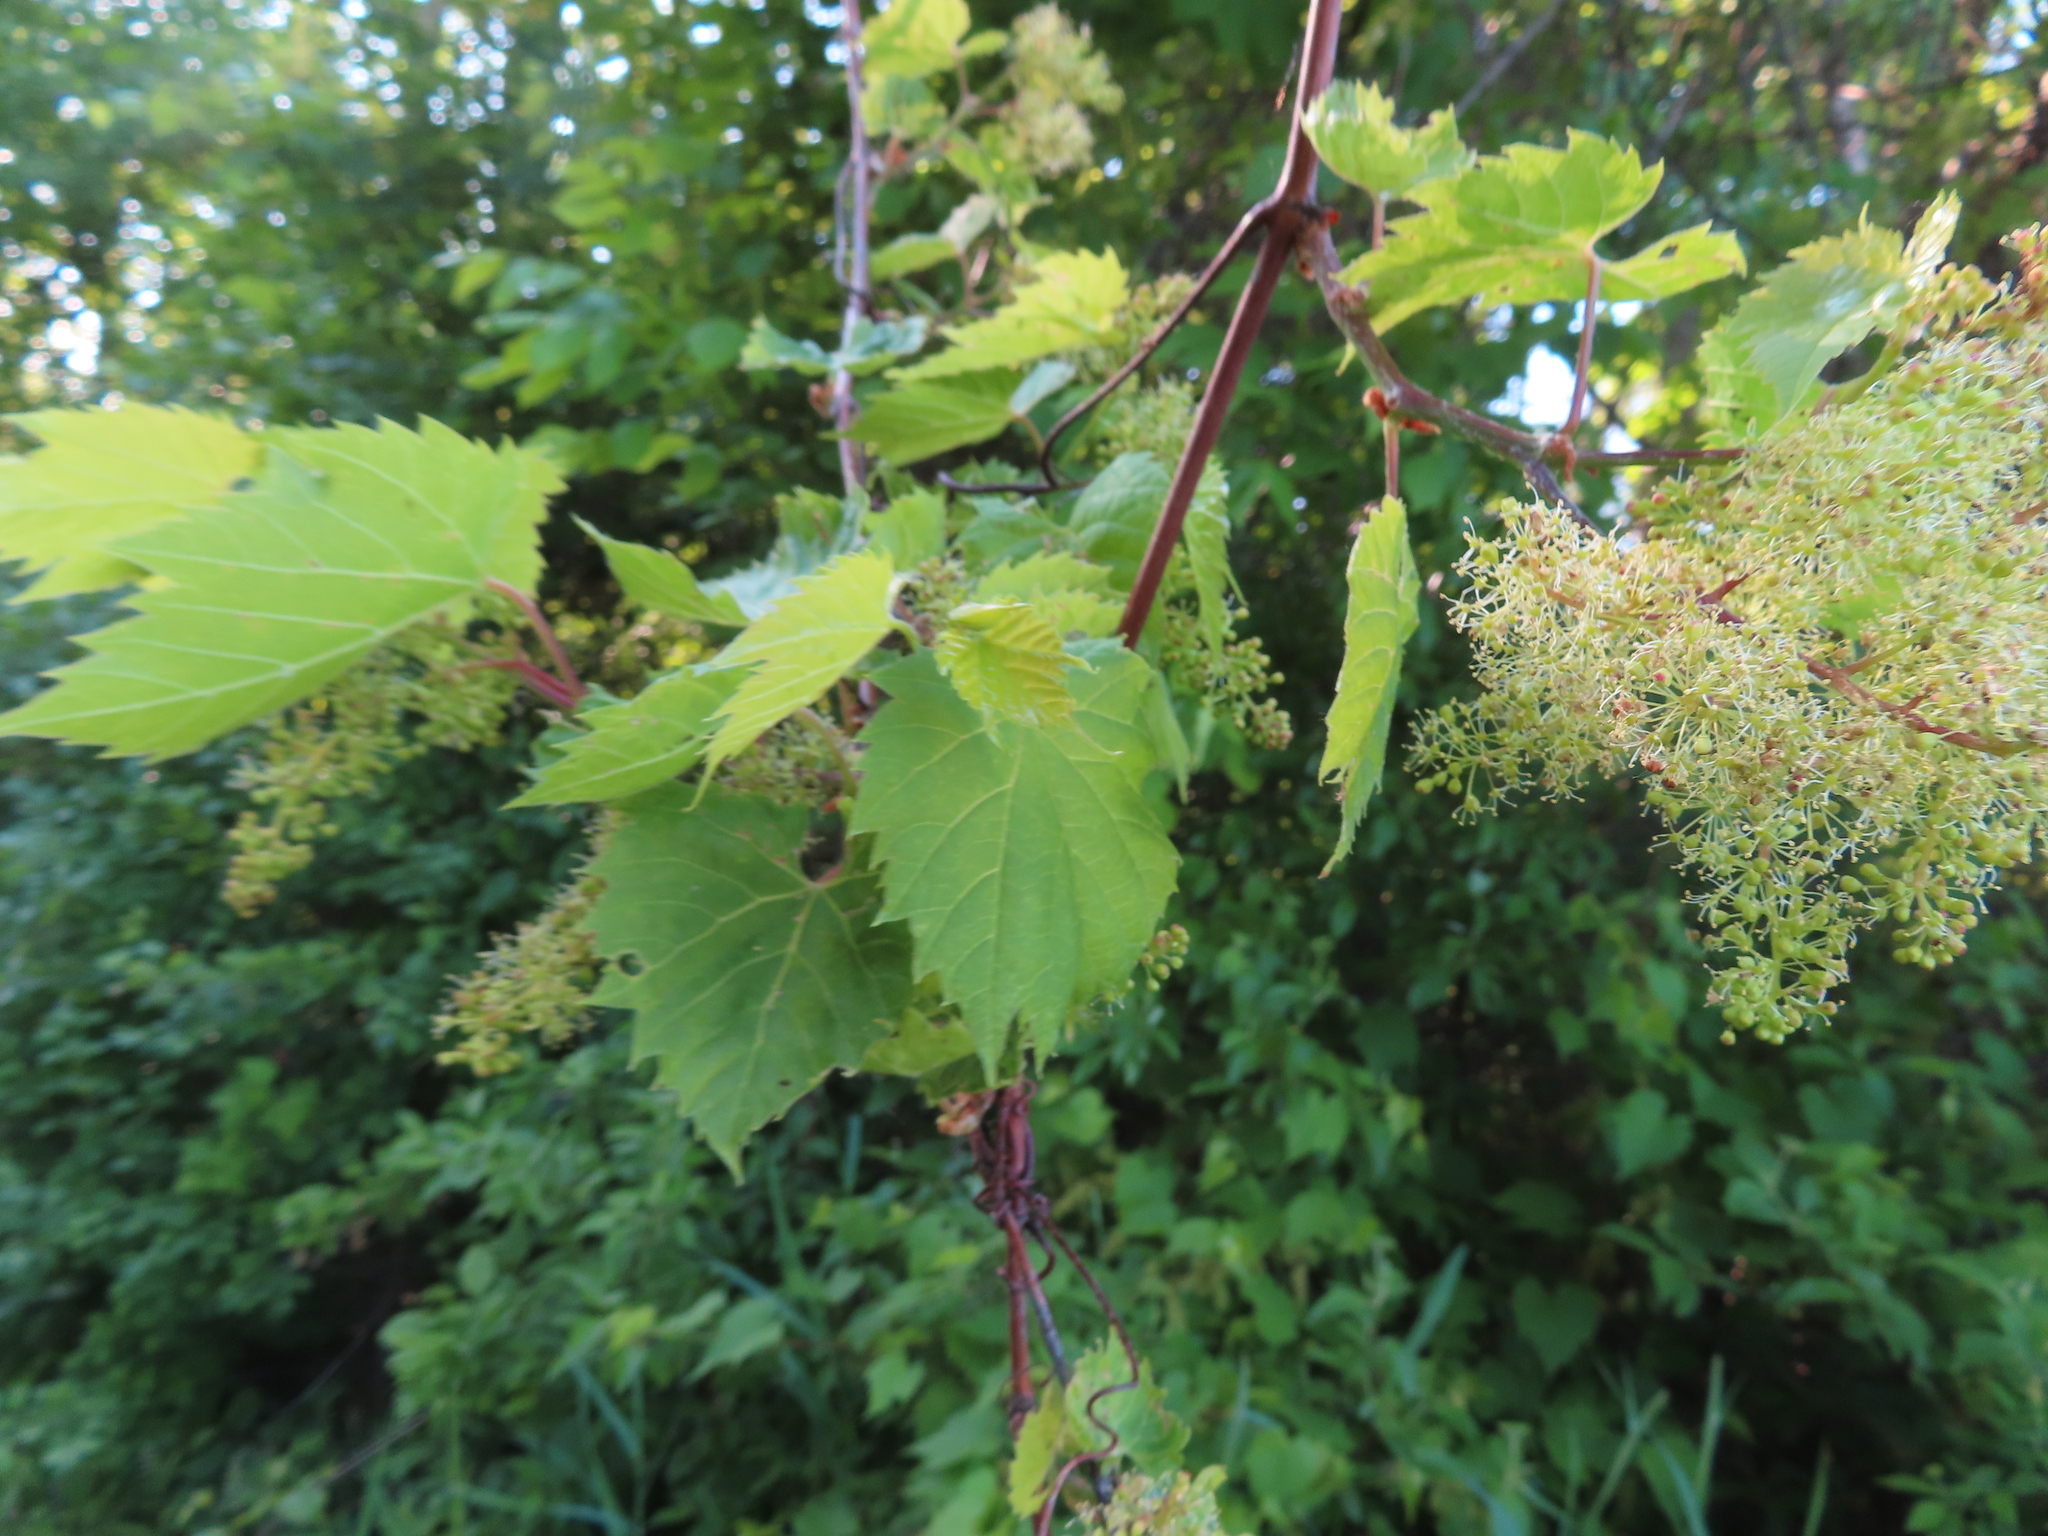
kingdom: Plantae
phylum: Tracheophyta
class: Magnoliopsida
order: Vitales
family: Vitaceae
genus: Vitis
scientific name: Vitis riparia
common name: Frost grape
